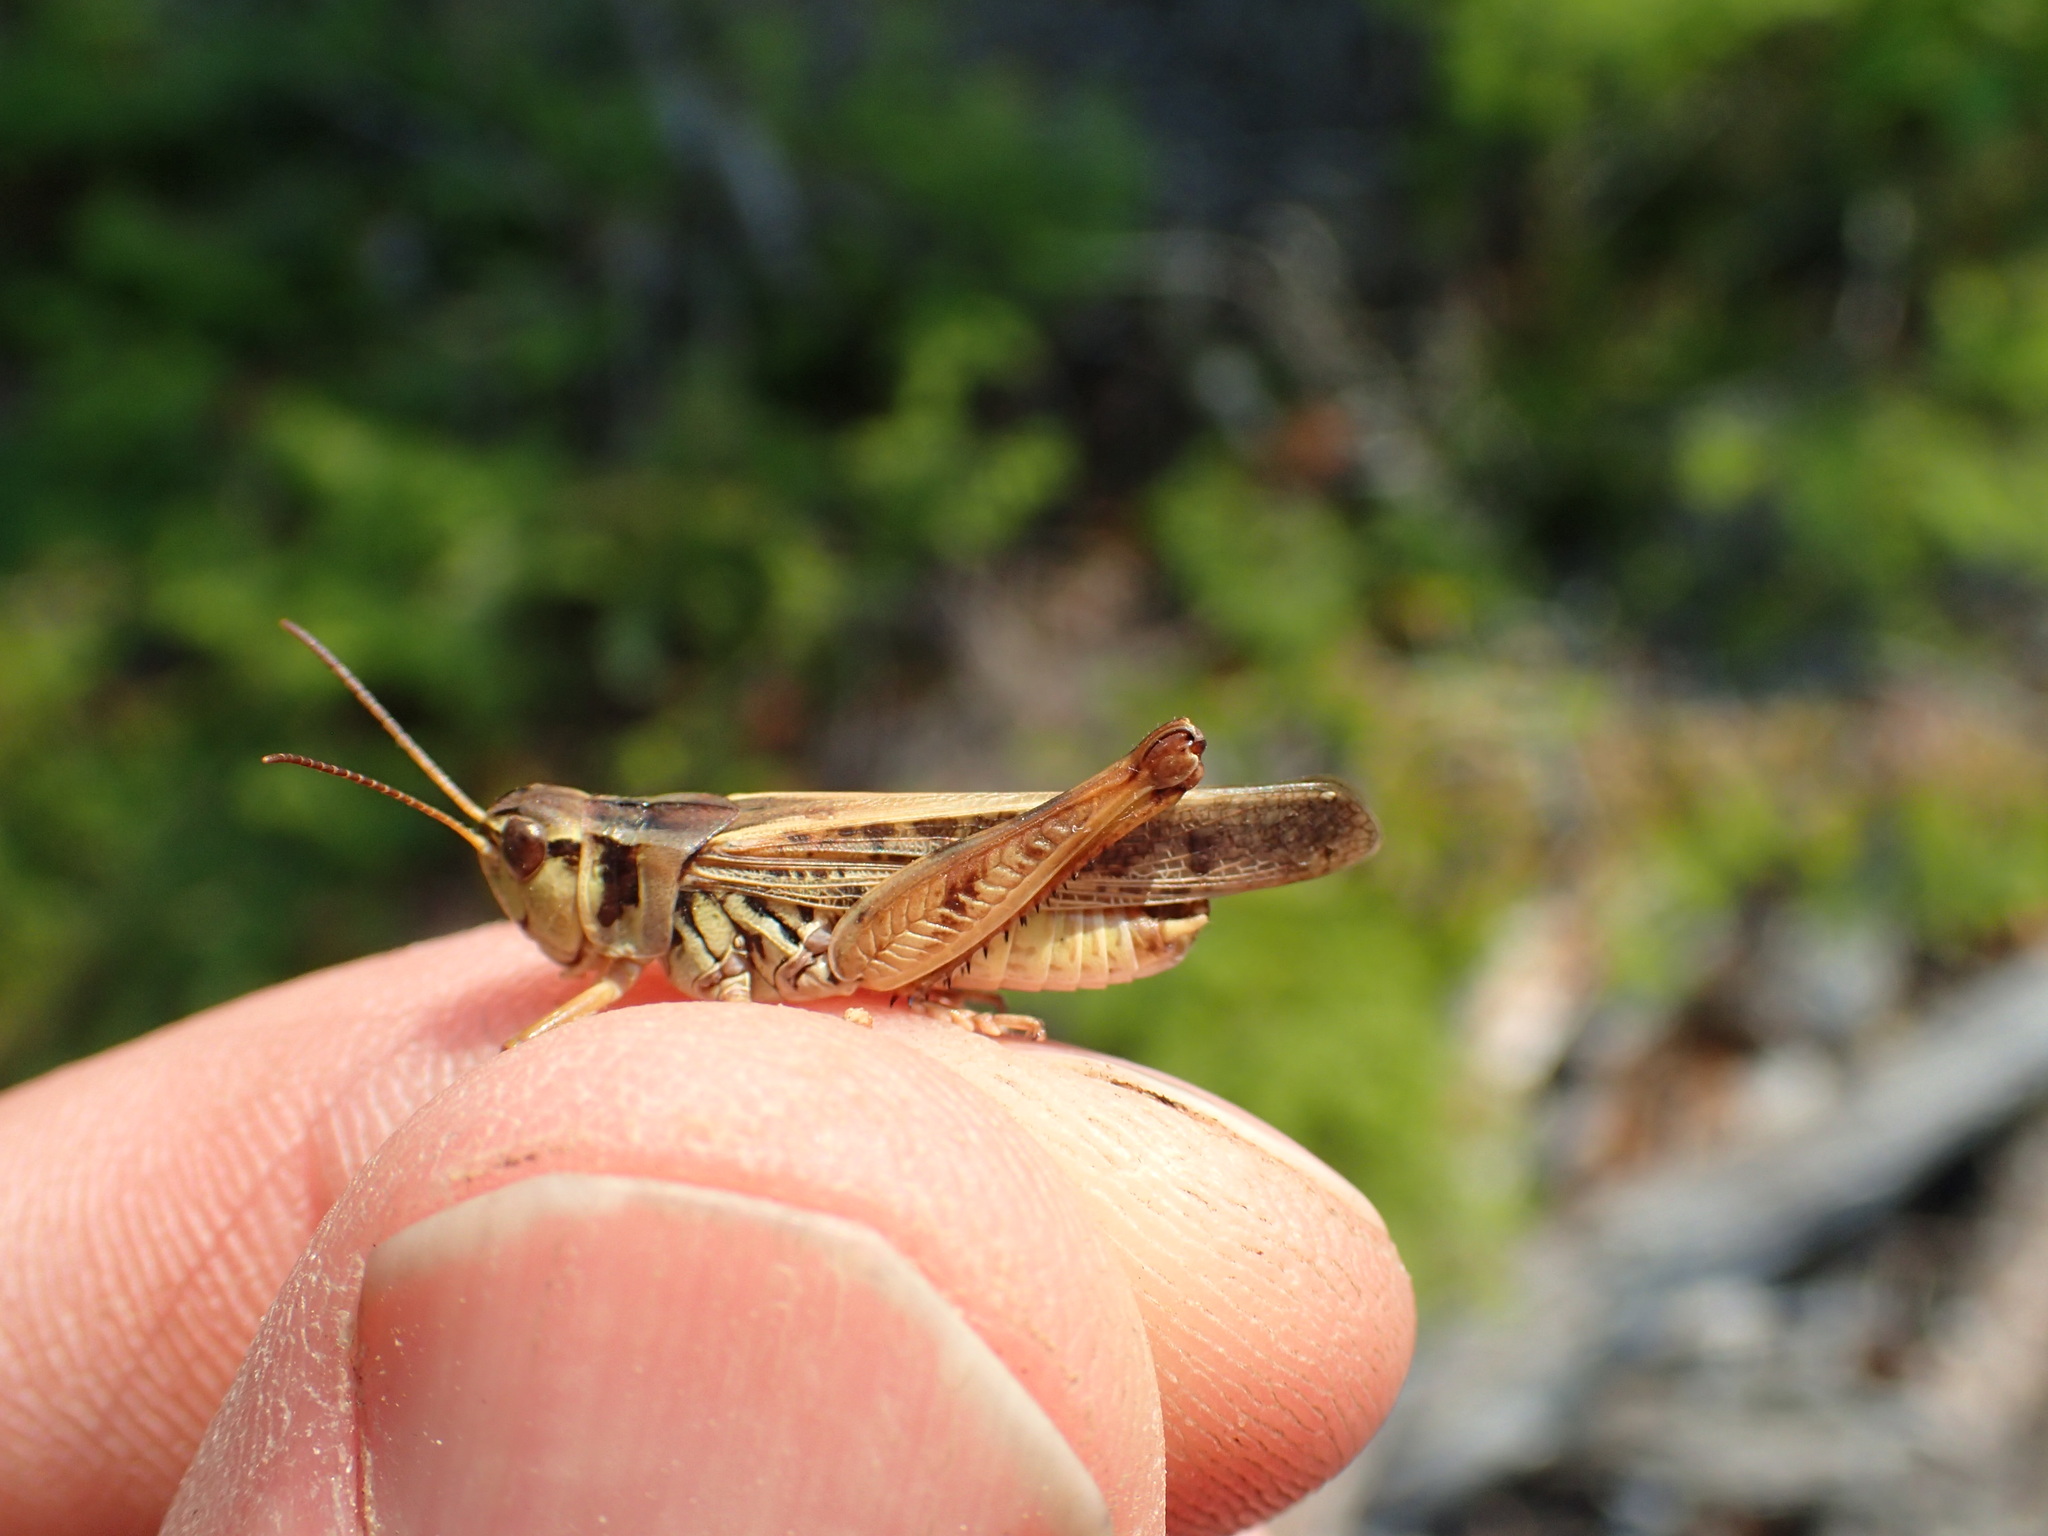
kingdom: Animalia
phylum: Arthropoda
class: Insecta
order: Orthoptera
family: Acrididae
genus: Camnula
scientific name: Camnula pellucida
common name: Clear-winged grasshopper
